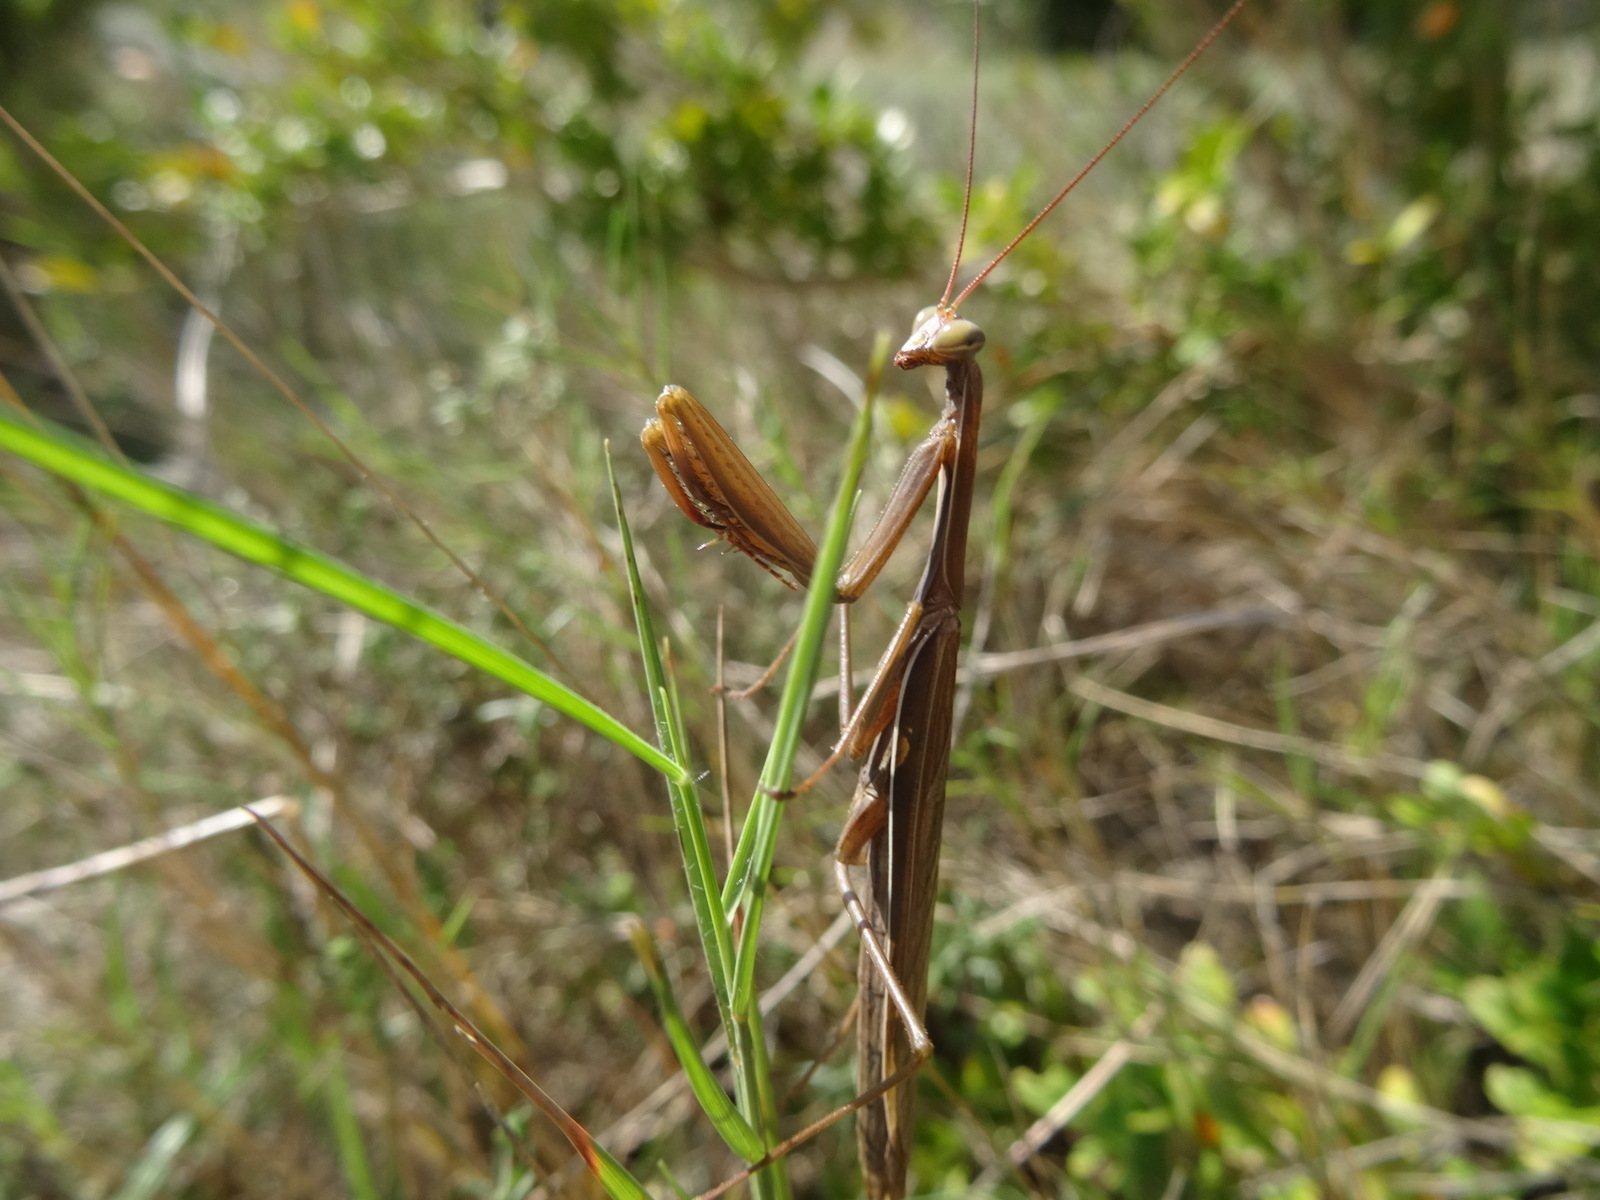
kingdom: Animalia
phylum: Arthropoda
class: Insecta
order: Mantodea
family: Mantidae
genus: Mantis
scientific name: Mantis religiosa
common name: Praying mantis
